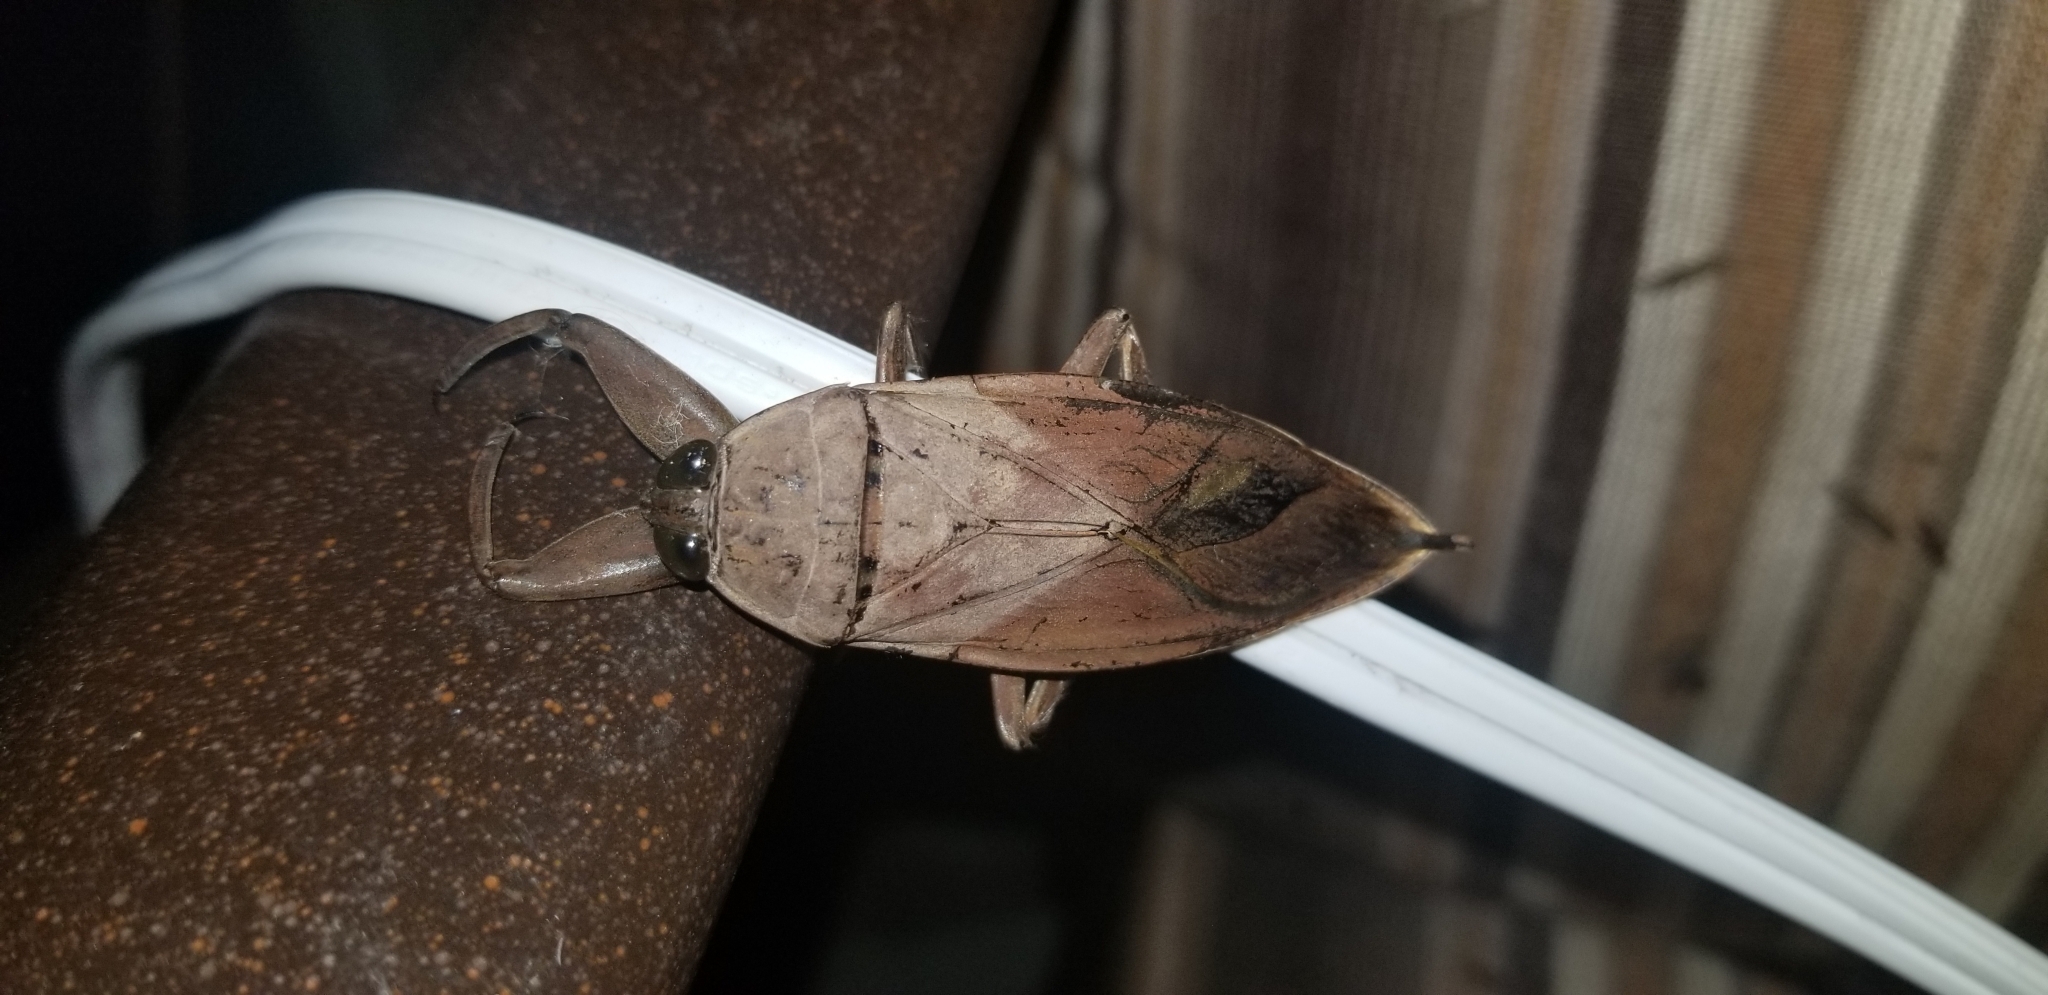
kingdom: Animalia
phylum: Arthropoda
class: Insecta
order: Hemiptera
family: Belostomatidae
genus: Lethocerus
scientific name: Lethocerus uhleri
